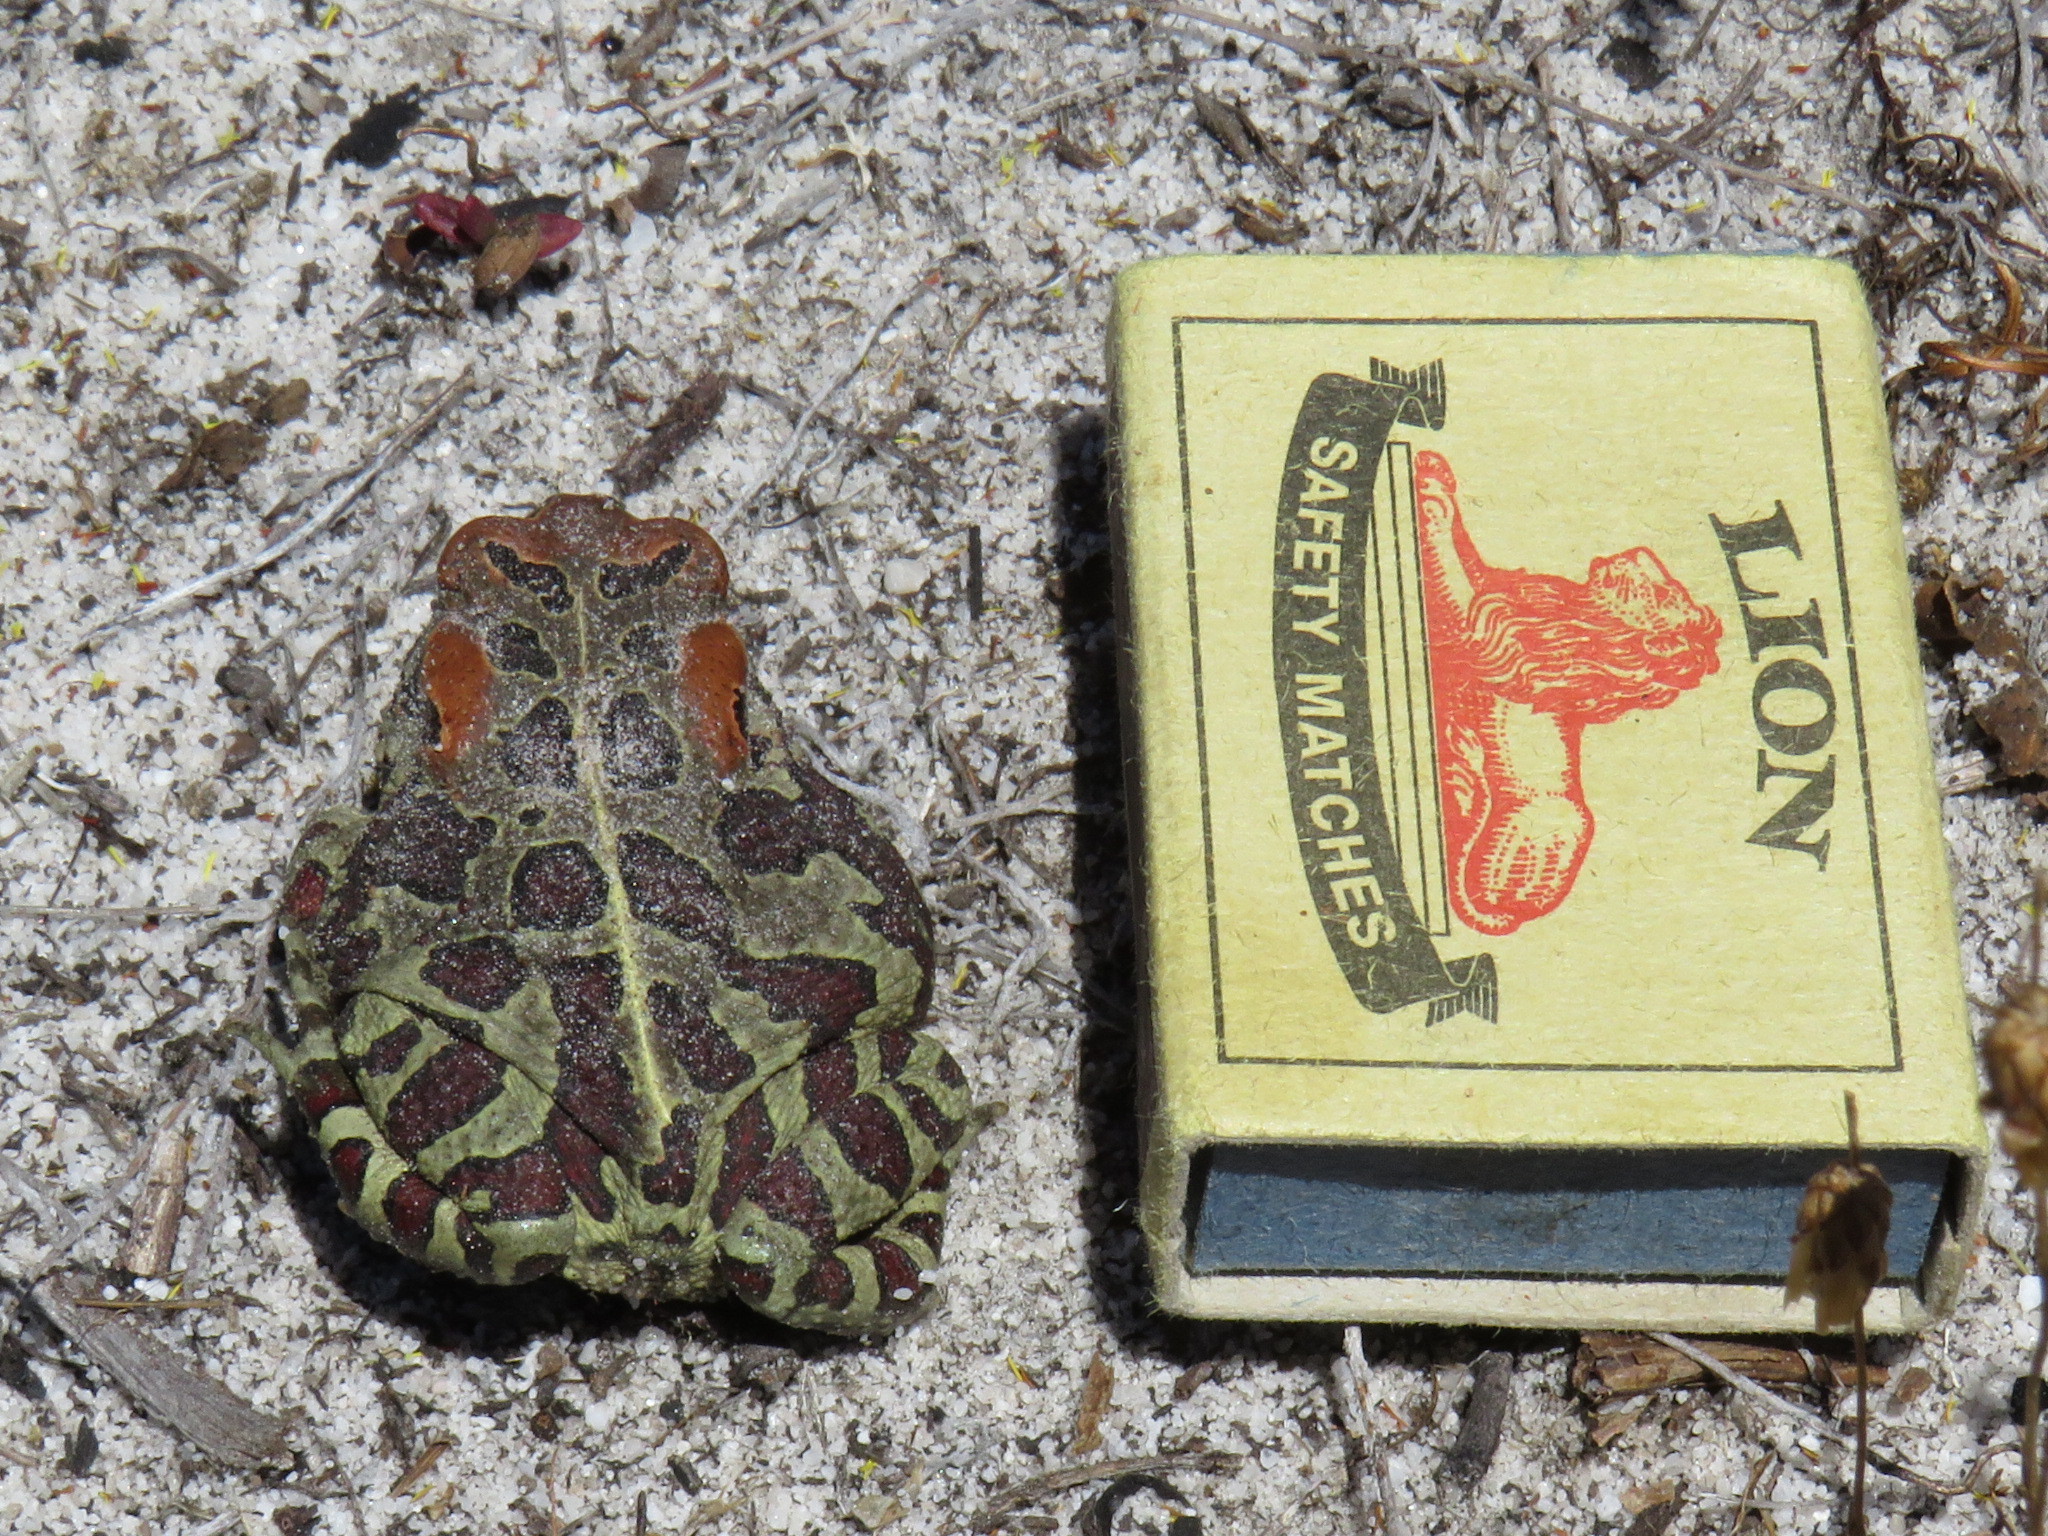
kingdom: Animalia
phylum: Chordata
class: Amphibia
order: Anura
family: Bufonidae
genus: Sclerophrys
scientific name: Sclerophrys pantherina
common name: Panther toad
